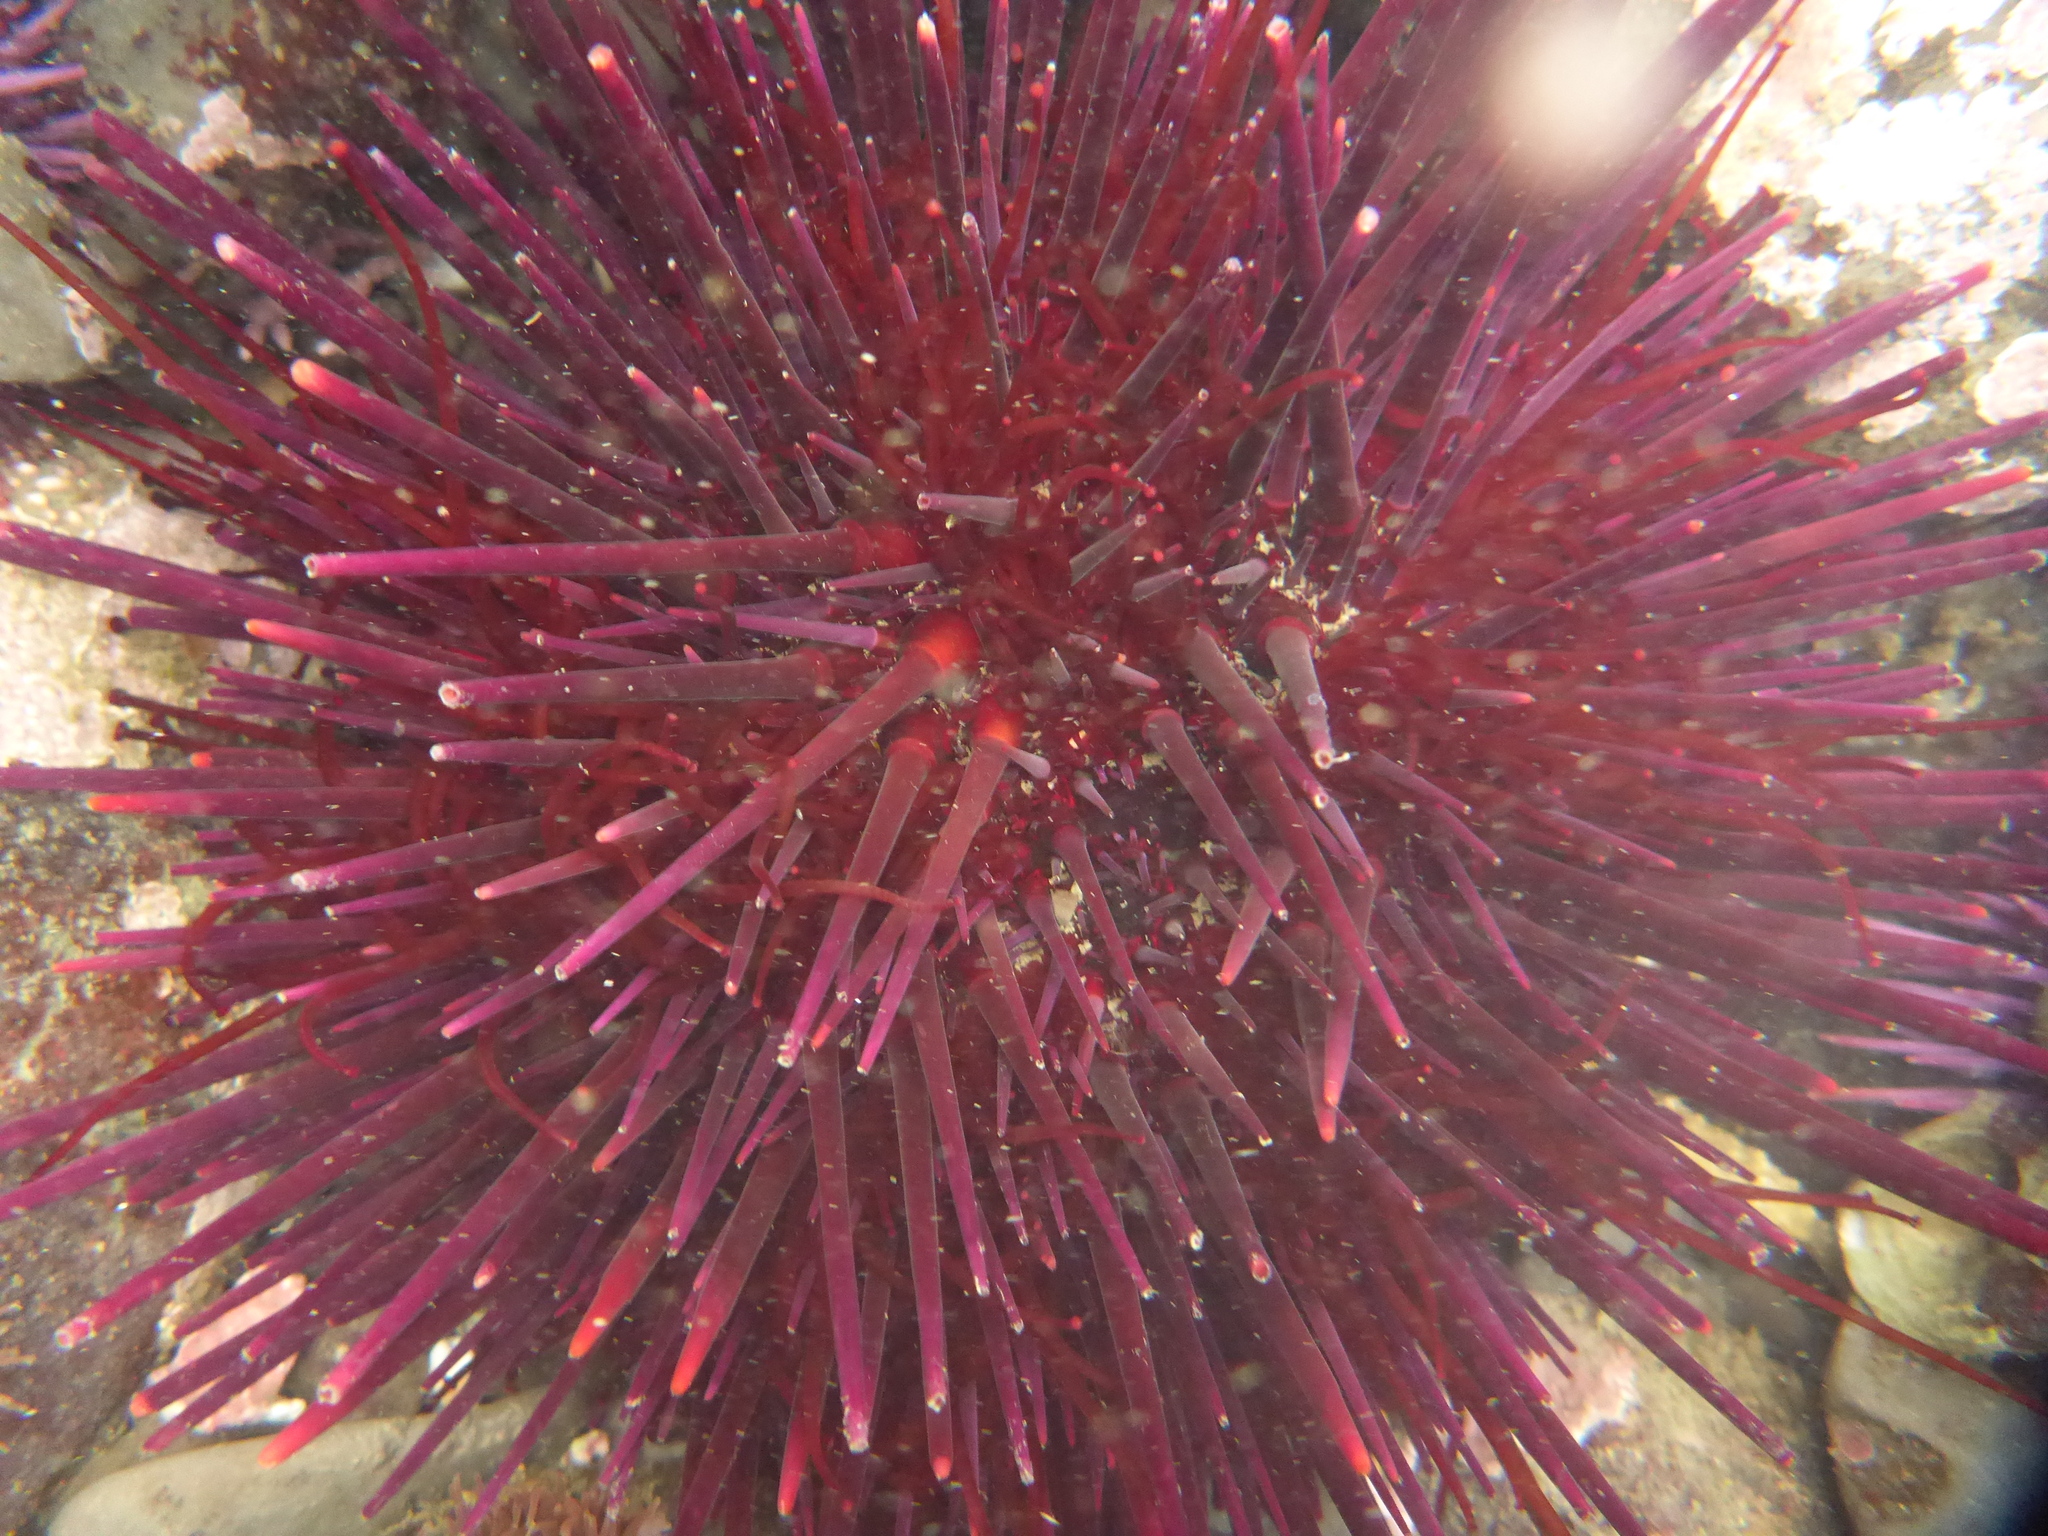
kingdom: Animalia
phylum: Echinodermata
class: Echinoidea
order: Camarodonta
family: Strongylocentrotidae
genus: Mesocentrotus
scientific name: Mesocentrotus franciscanus
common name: Red sea urchin
